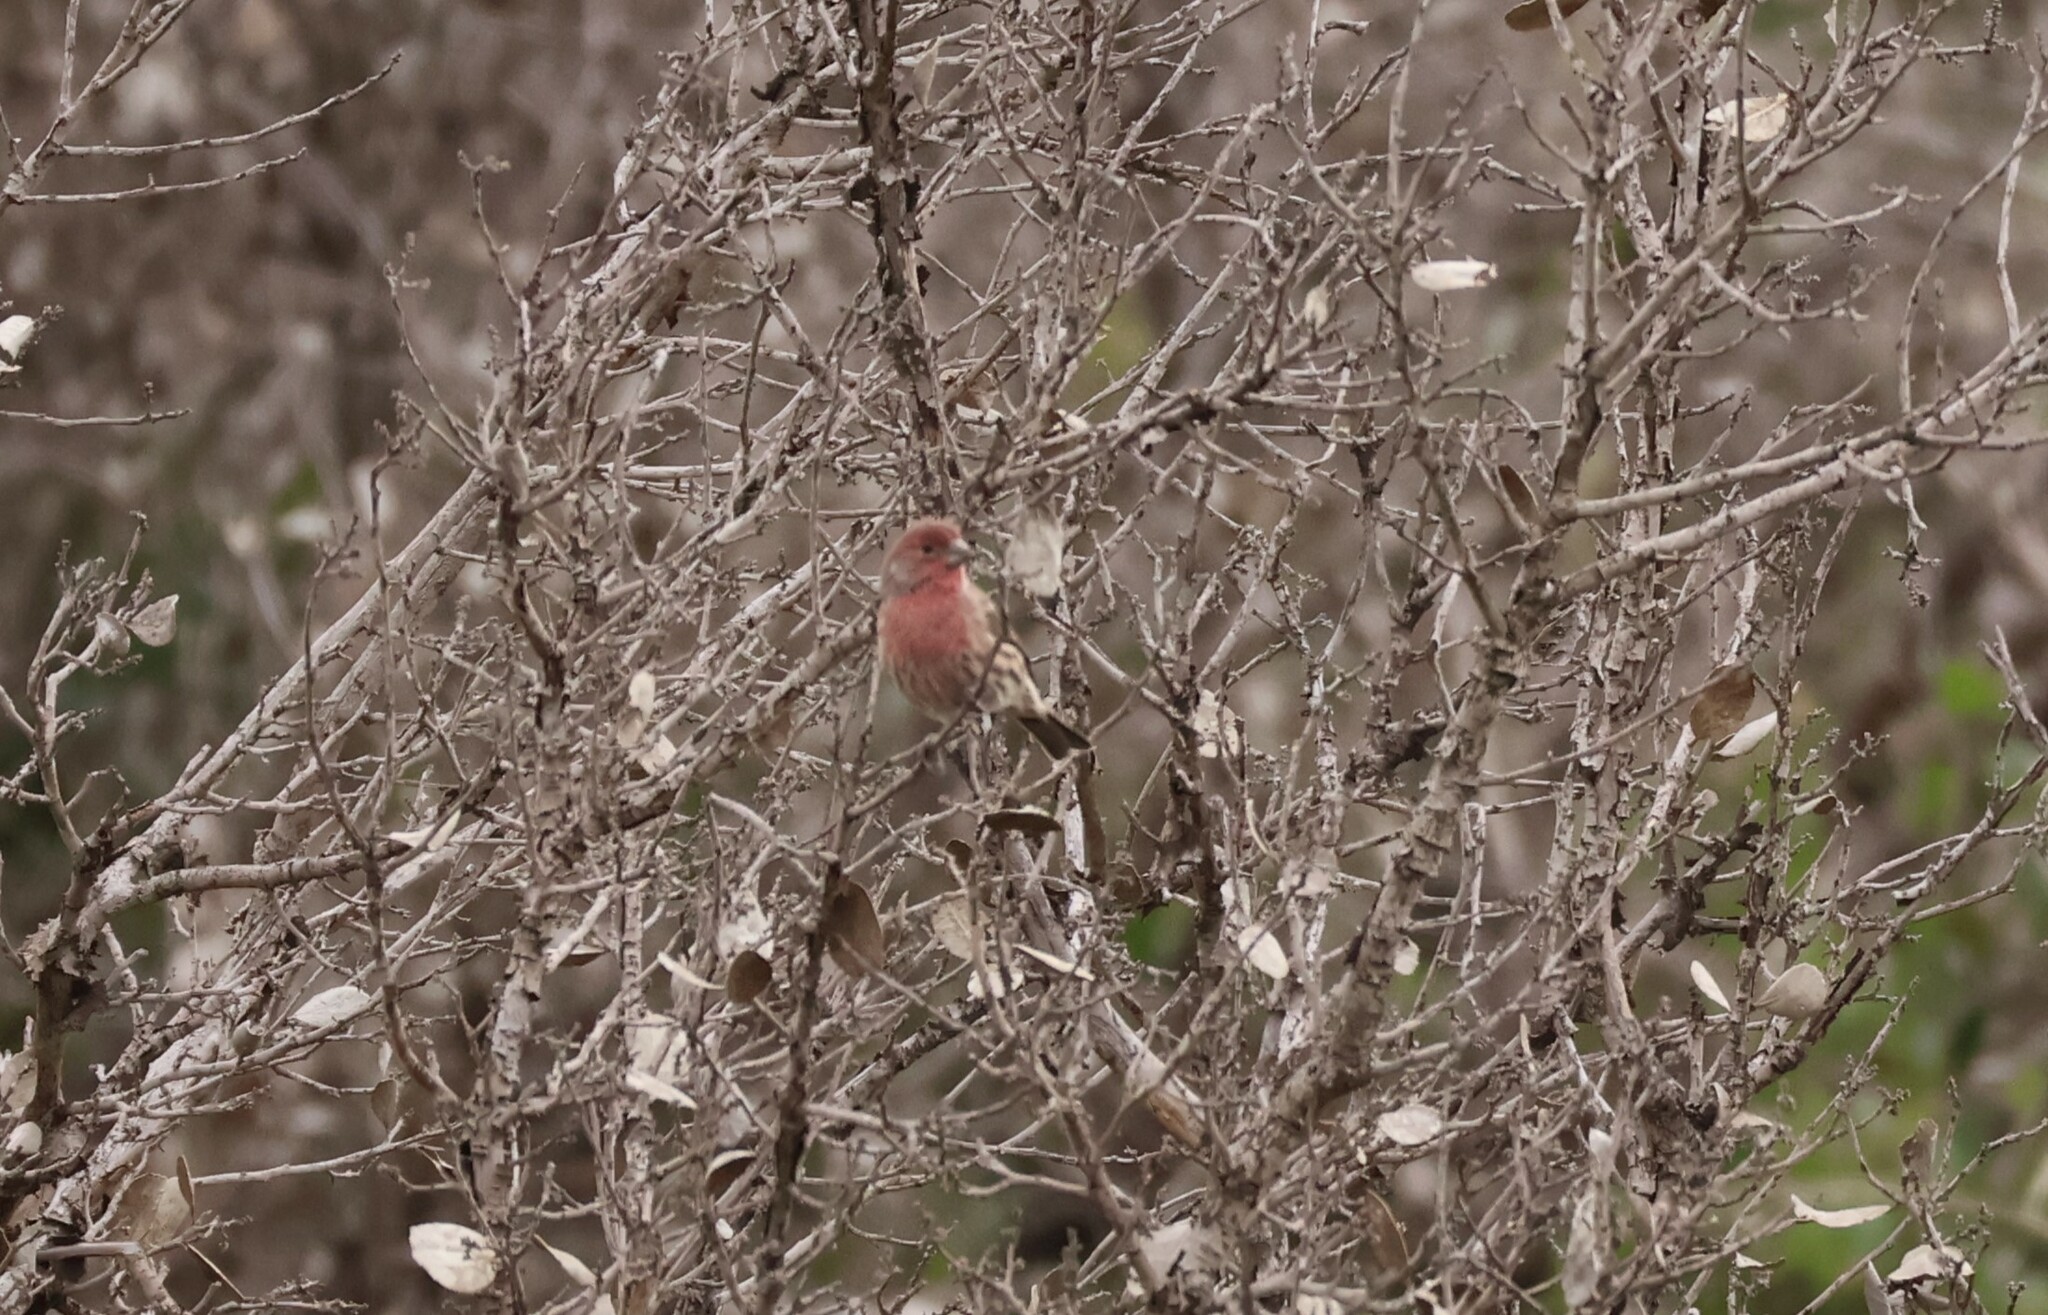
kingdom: Animalia
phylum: Chordata
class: Aves
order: Passeriformes
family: Fringillidae
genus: Haemorhous
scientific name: Haemorhous mexicanus
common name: House finch
